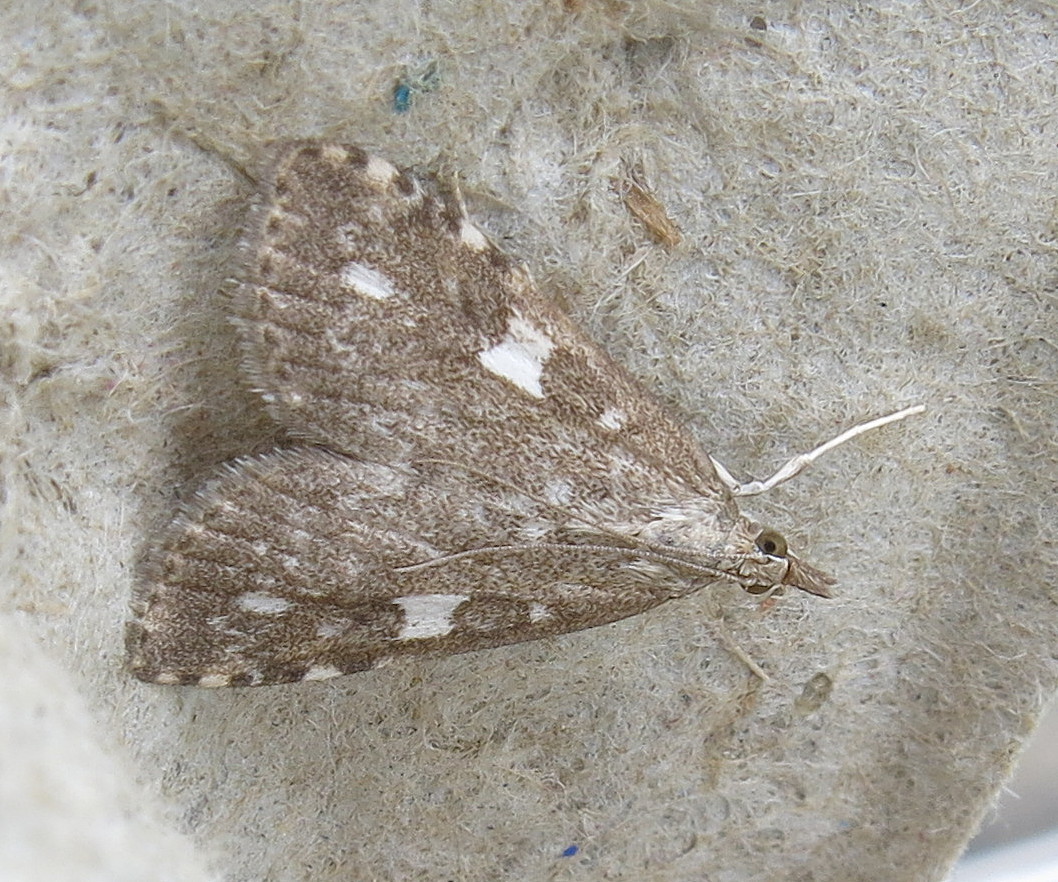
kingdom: Animalia
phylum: Arthropoda
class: Insecta
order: Lepidoptera
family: Crambidae
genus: Udea
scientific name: Udea olivalis
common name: Olive pearl
